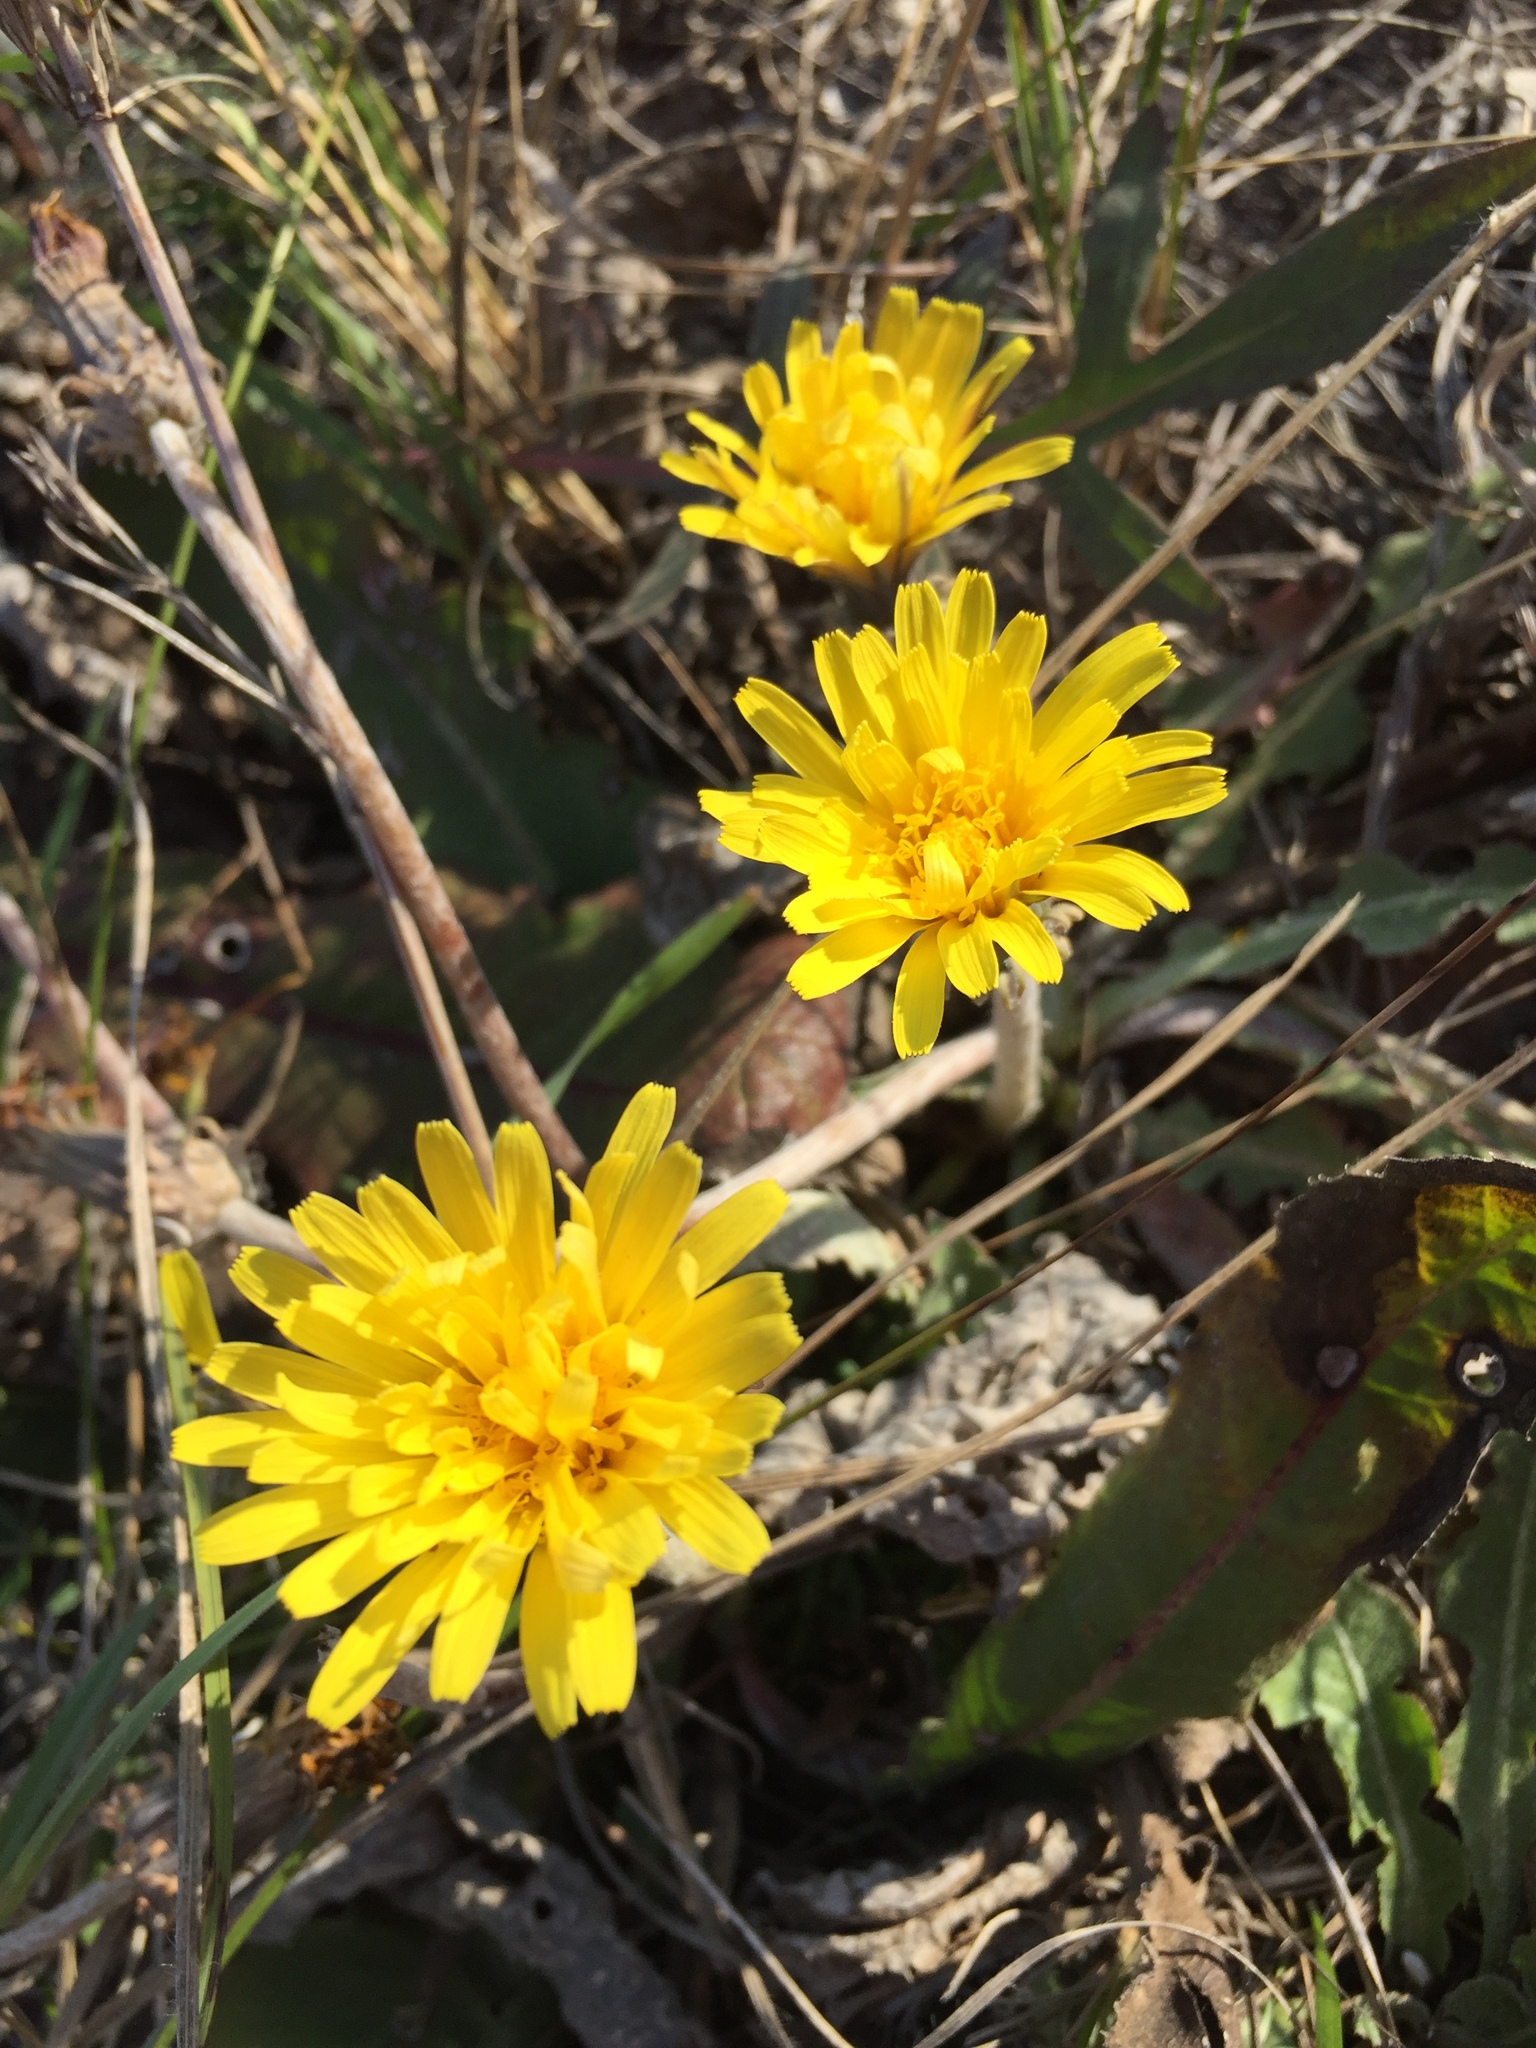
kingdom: Plantae
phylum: Tracheophyta
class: Magnoliopsida
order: Asterales
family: Asteraceae
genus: Taraxacum
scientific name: Taraxacum serotinum
